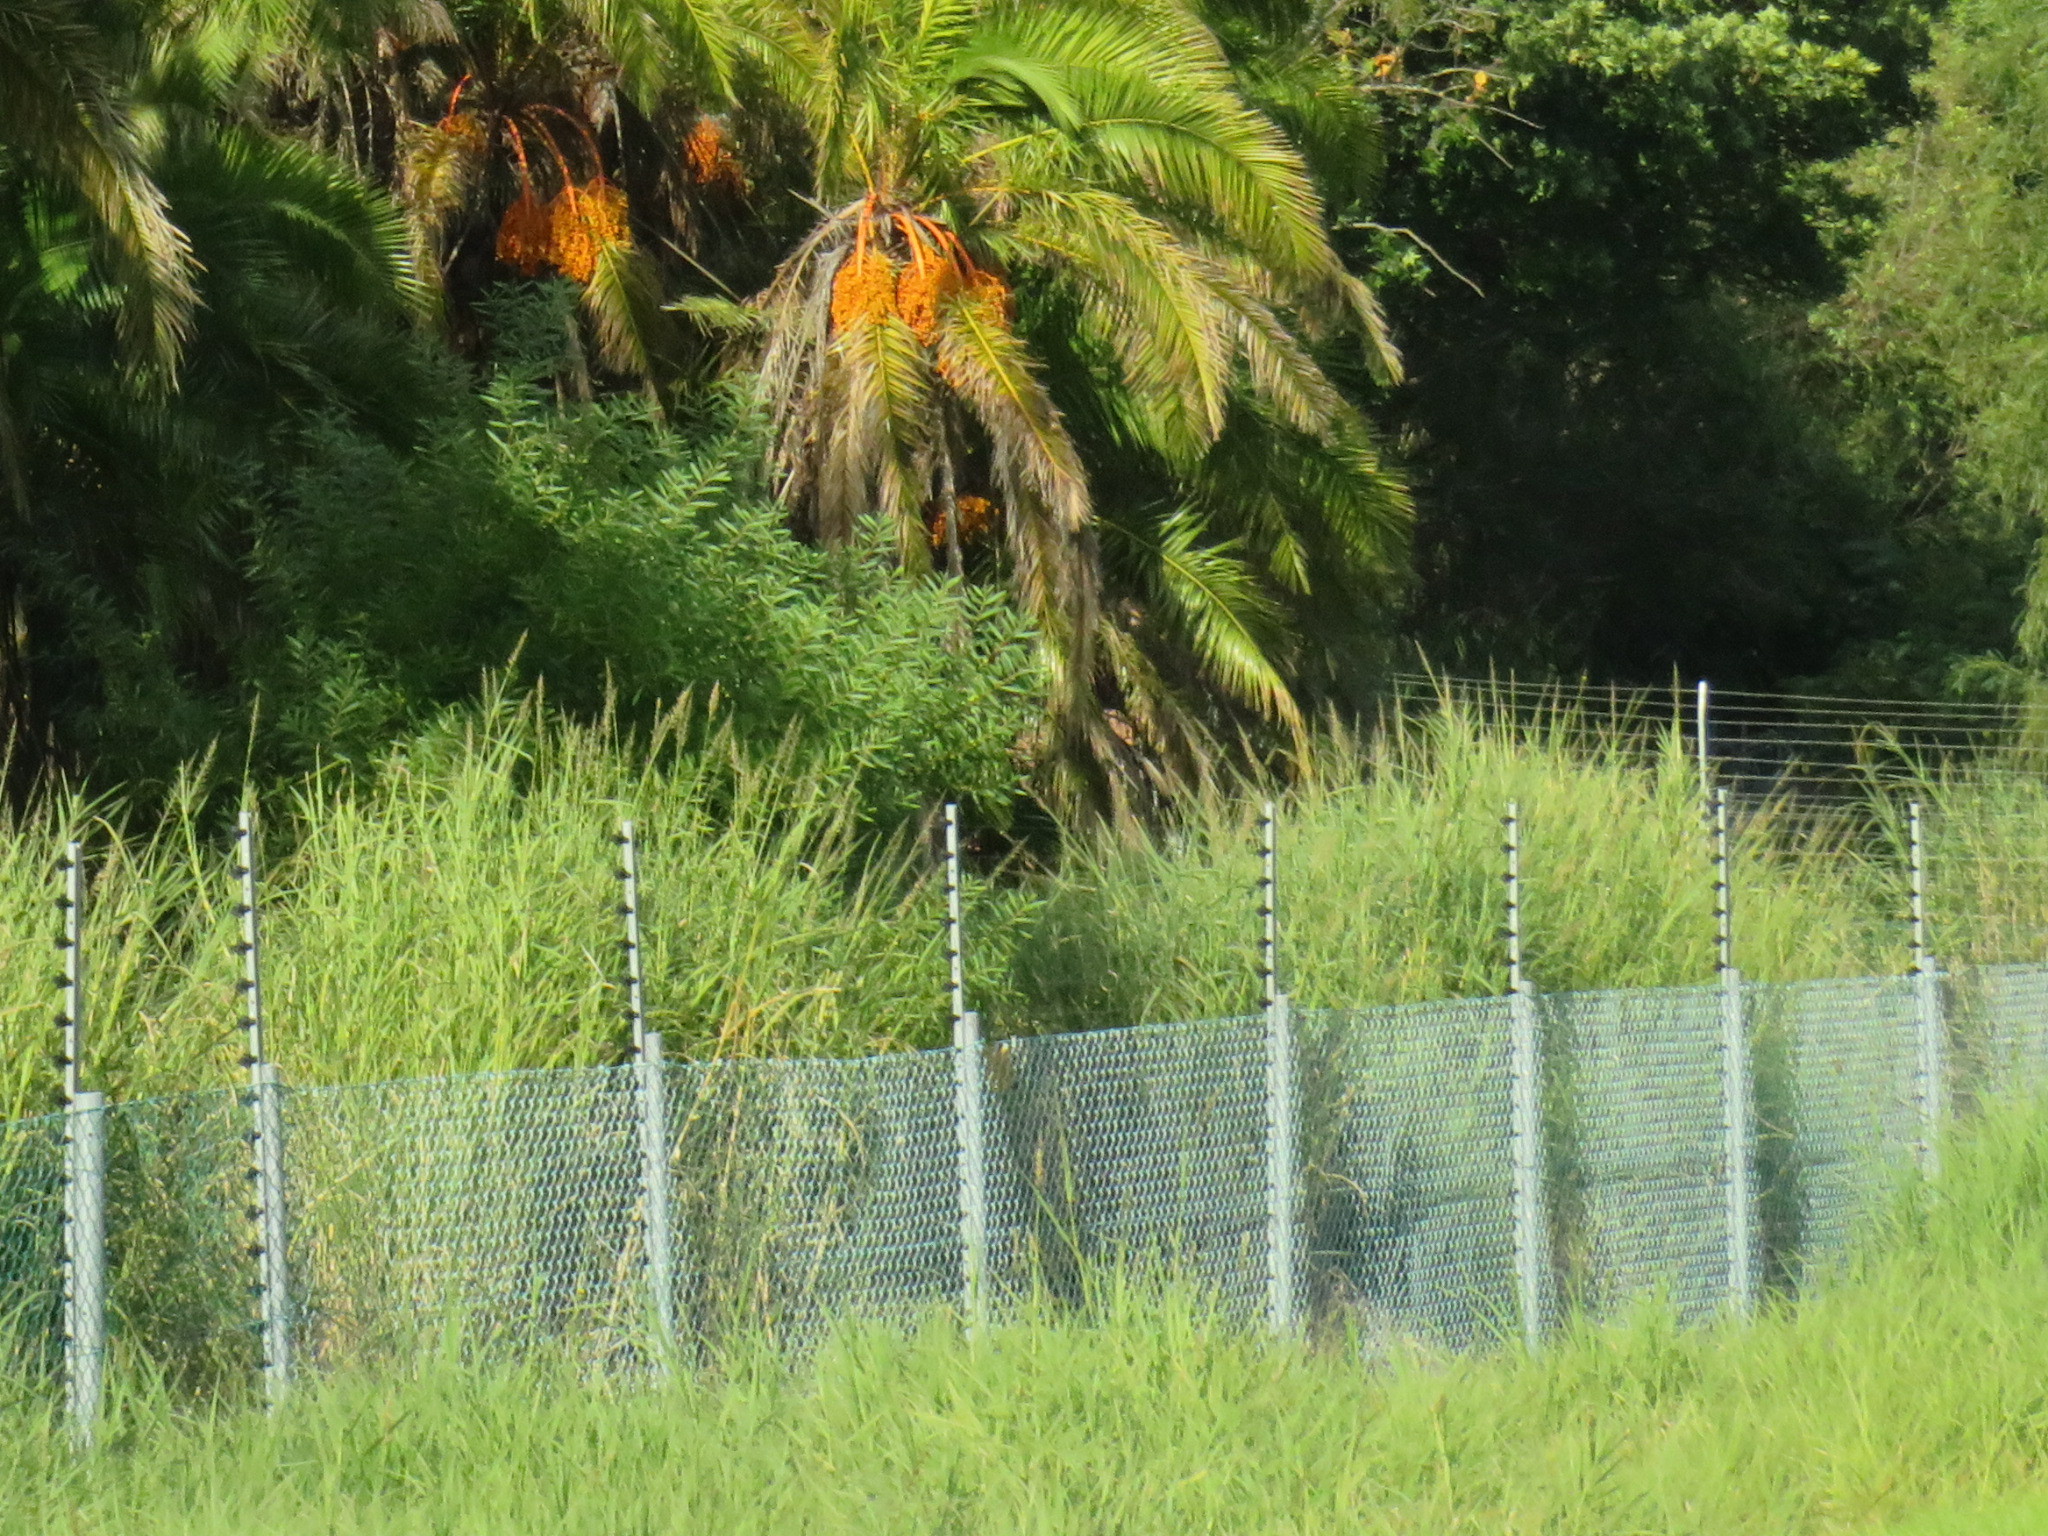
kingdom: Plantae
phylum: Tracheophyta
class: Liliopsida
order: Poales
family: Poaceae
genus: Echinochloa
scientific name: Echinochloa pyramidalis
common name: Antelope grass
